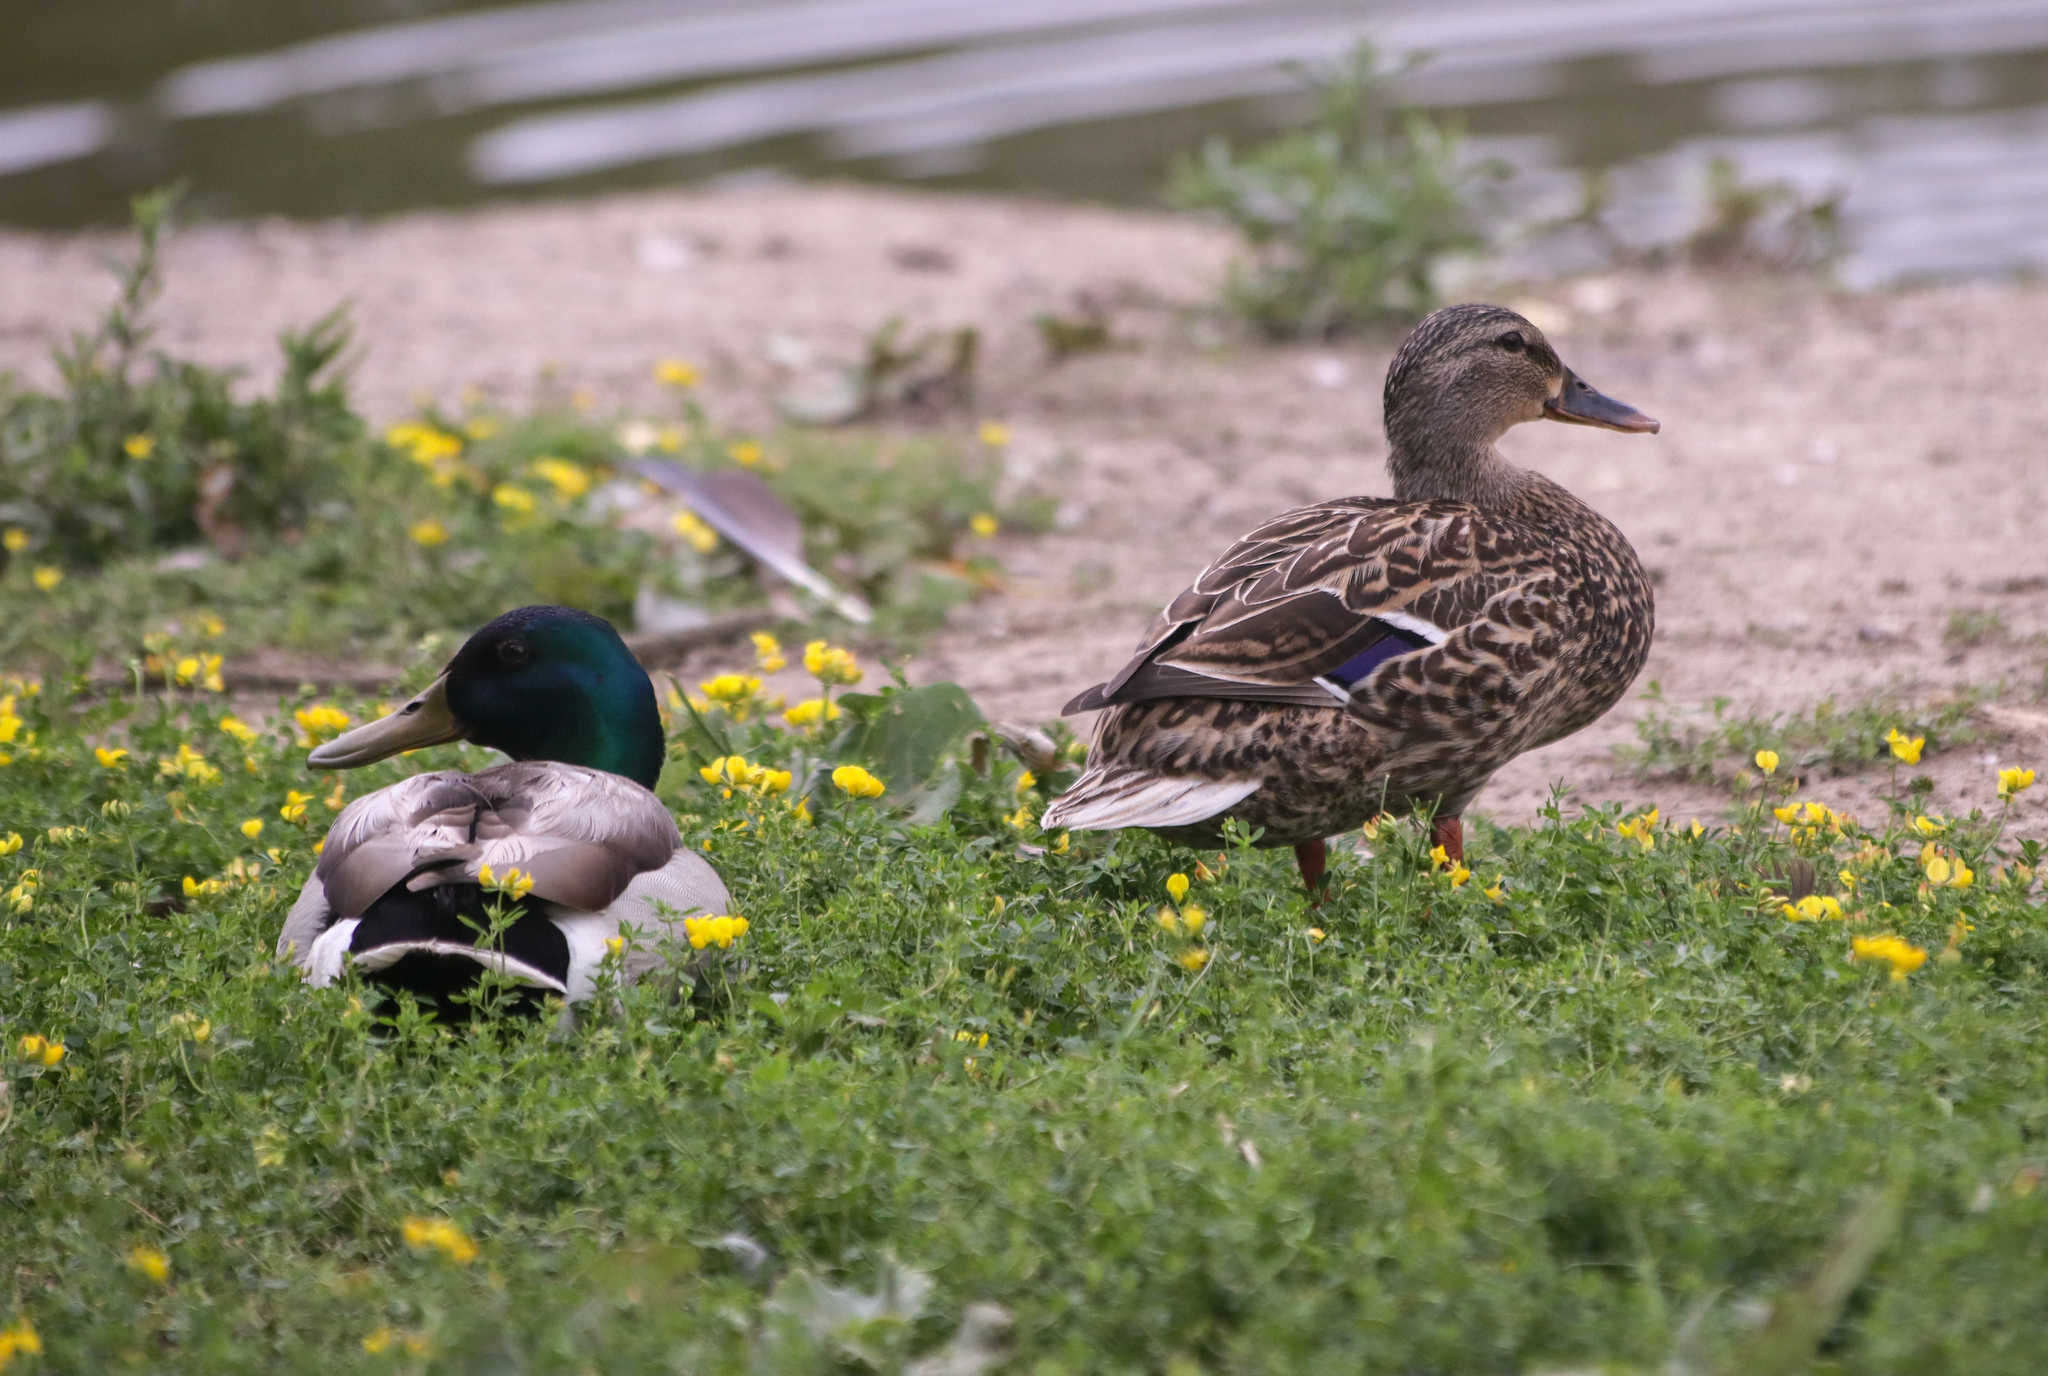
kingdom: Animalia
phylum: Chordata
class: Aves
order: Anseriformes
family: Anatidae
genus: Anas
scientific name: Anas platyrhynchos
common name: Mallard
